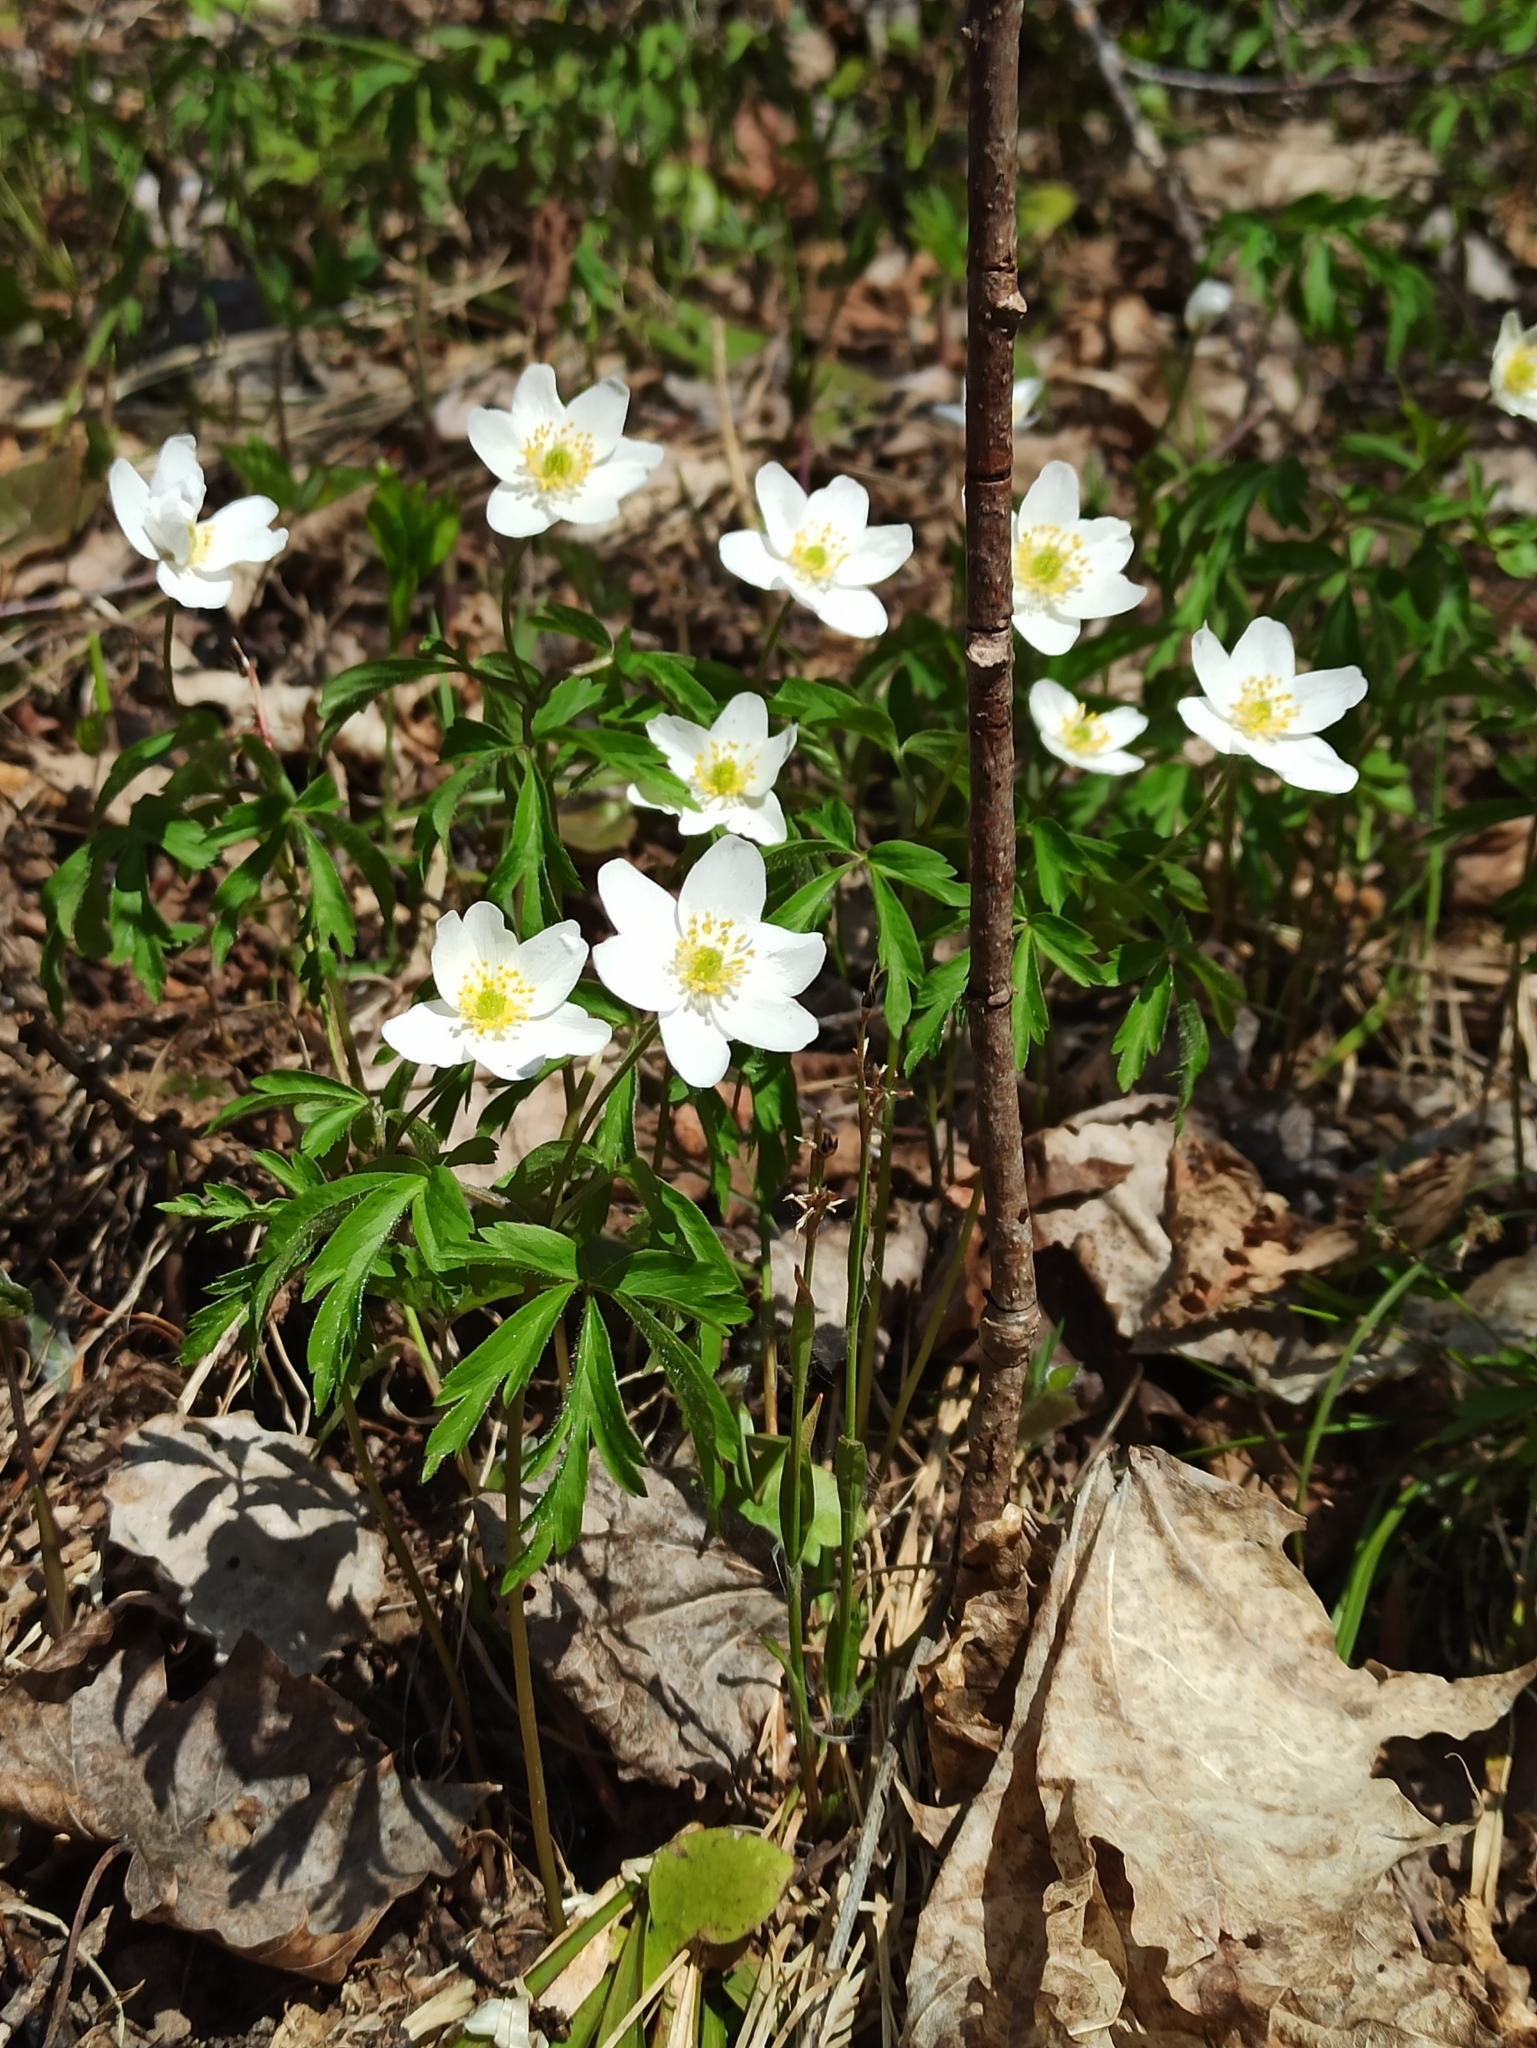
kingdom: Plantae
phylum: Tracheophyta
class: Magnoliopsida
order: Ranunculales
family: Ranunculaceae
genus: Anemone
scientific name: Anemone nemorosa
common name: Wood anemone
